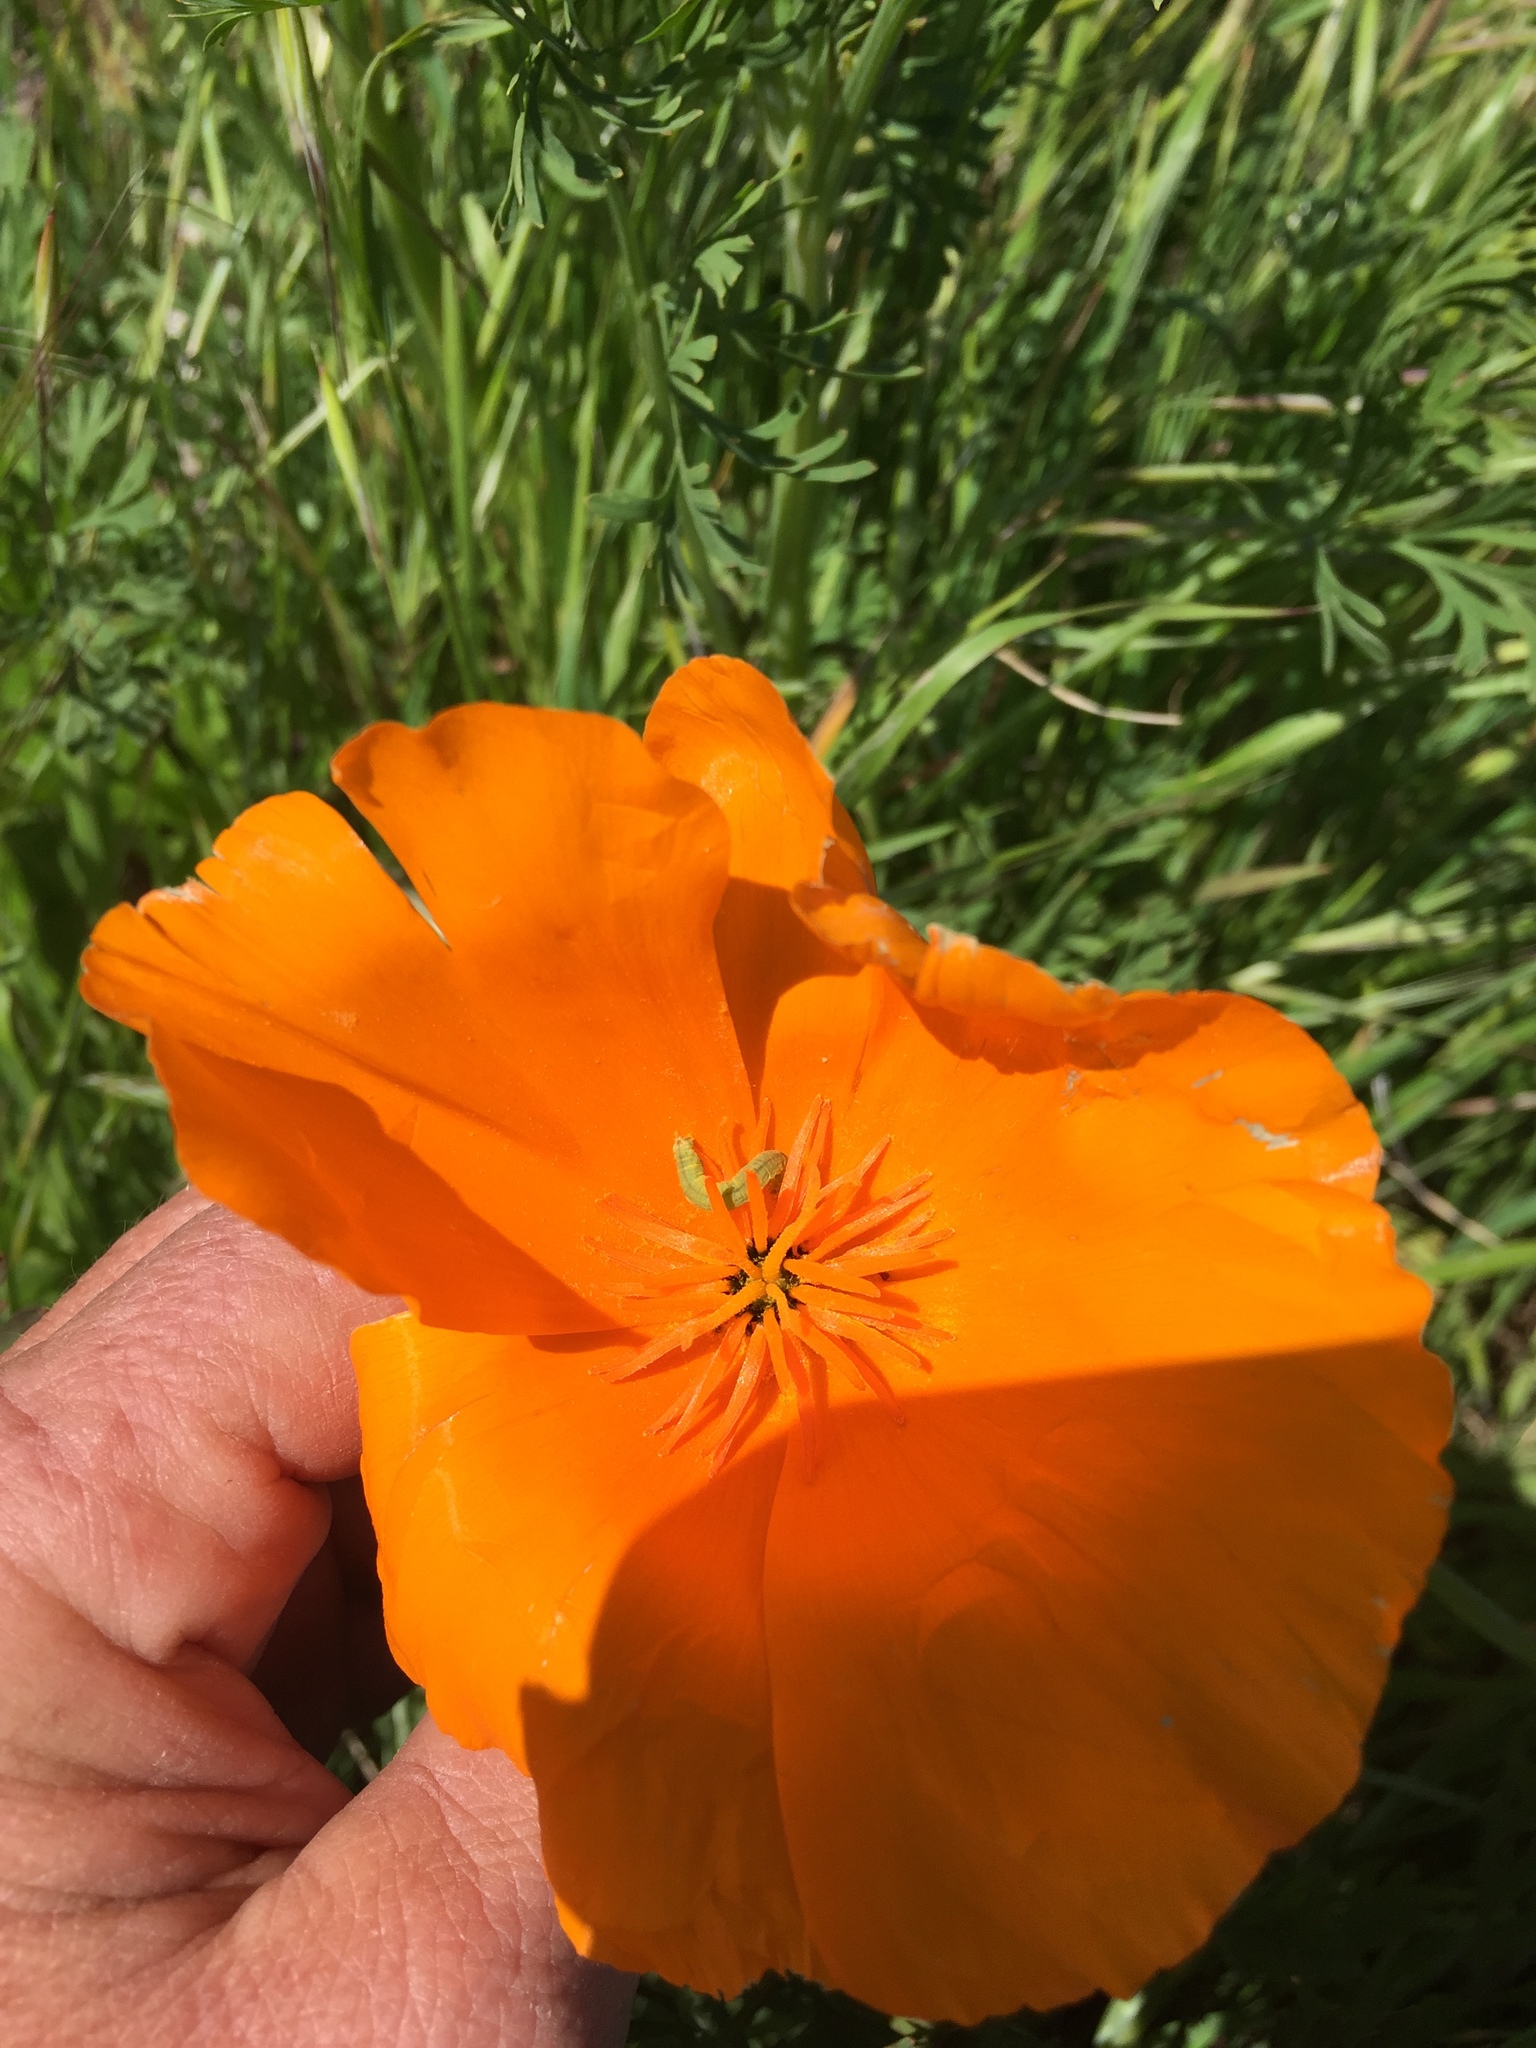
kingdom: Plantae
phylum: Tracheophyta
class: Magnoliopsida
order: Ranunculales
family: Papaveraceae
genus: Eschscholzia
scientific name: Eschscholzia californica
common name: California poppy
